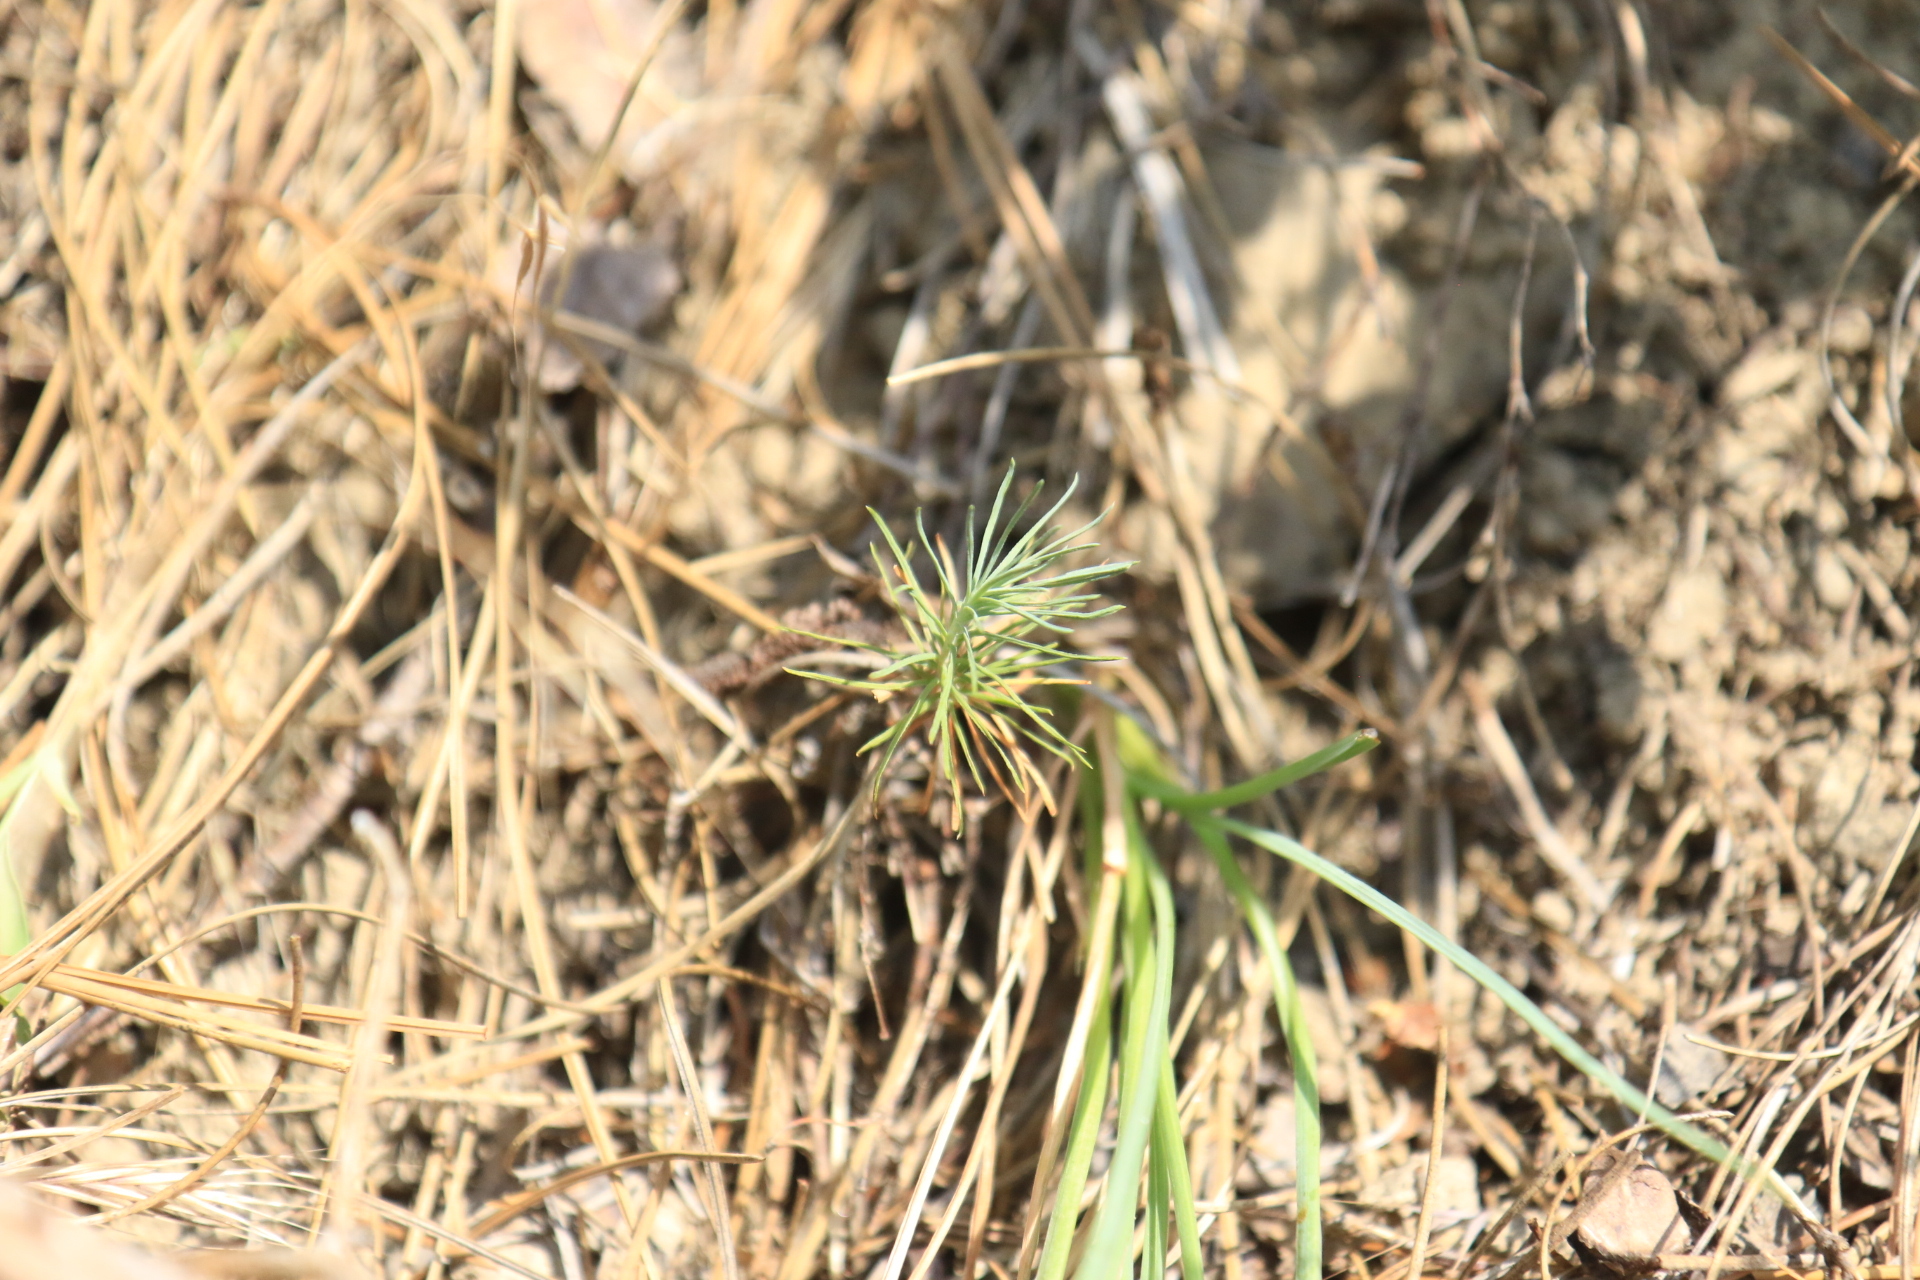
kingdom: Plantae
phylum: Tracheophyta
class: Pinopsida
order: Pinales
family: Pinaceae
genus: Pinus
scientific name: Pinus ponderosa
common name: Western yellow-pine
